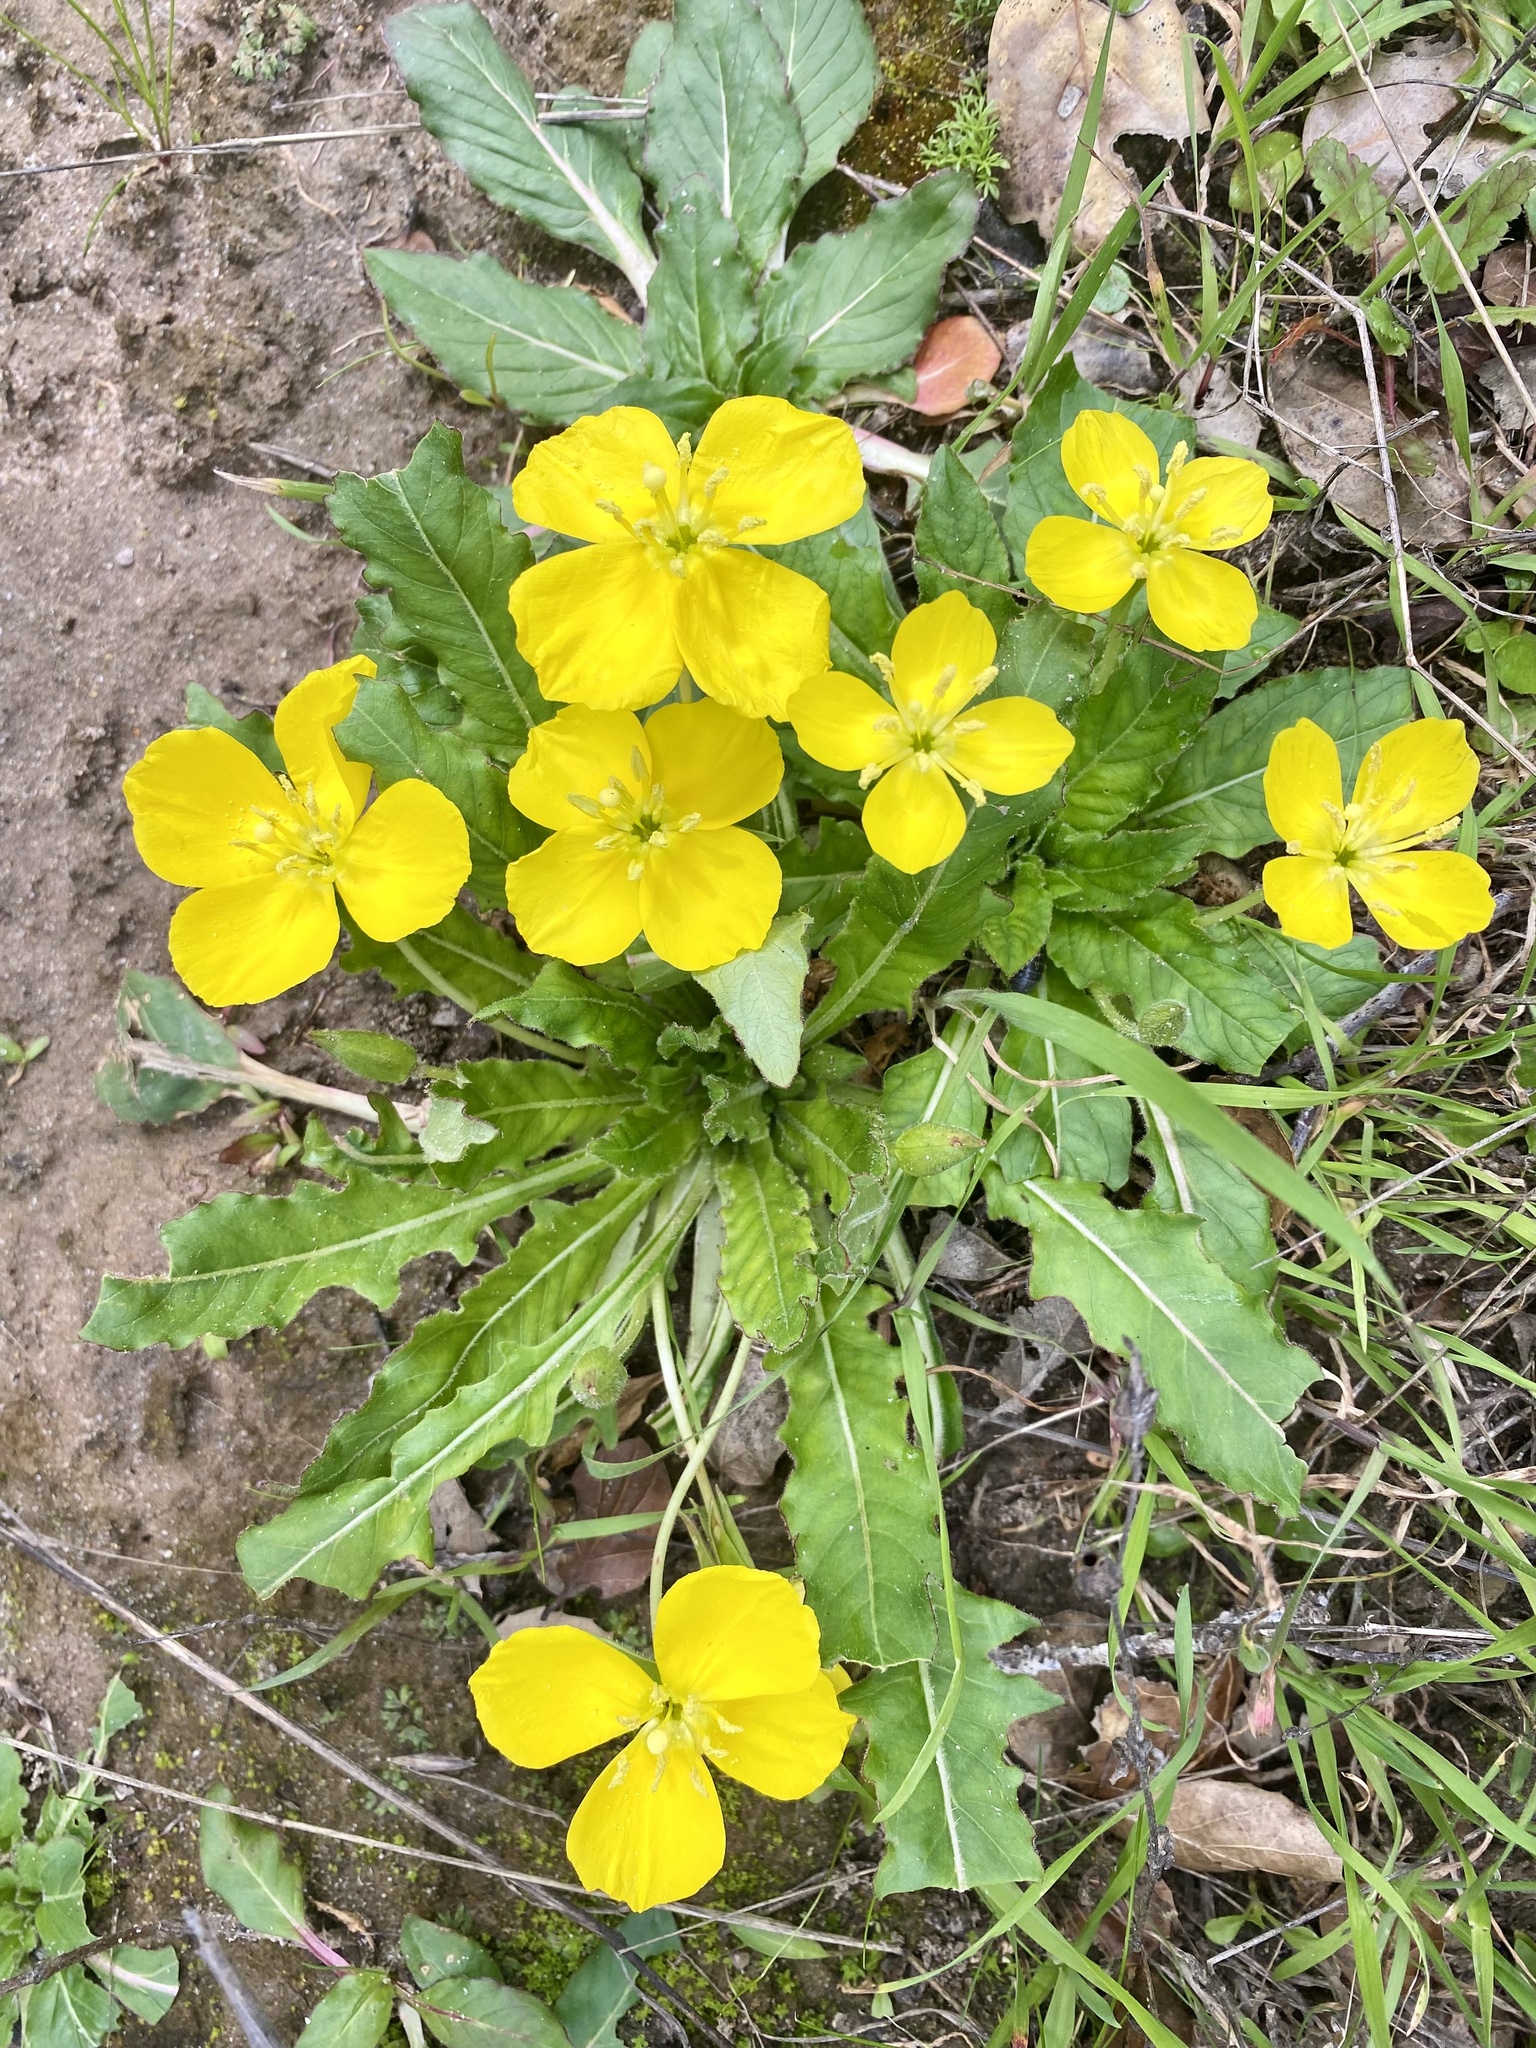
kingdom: Plantae
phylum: Tracheophyta
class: Magnoliopsida
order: Myrtales
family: Onagraceae
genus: Taraxia
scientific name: Taraxia ovata
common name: Goldeneggs
